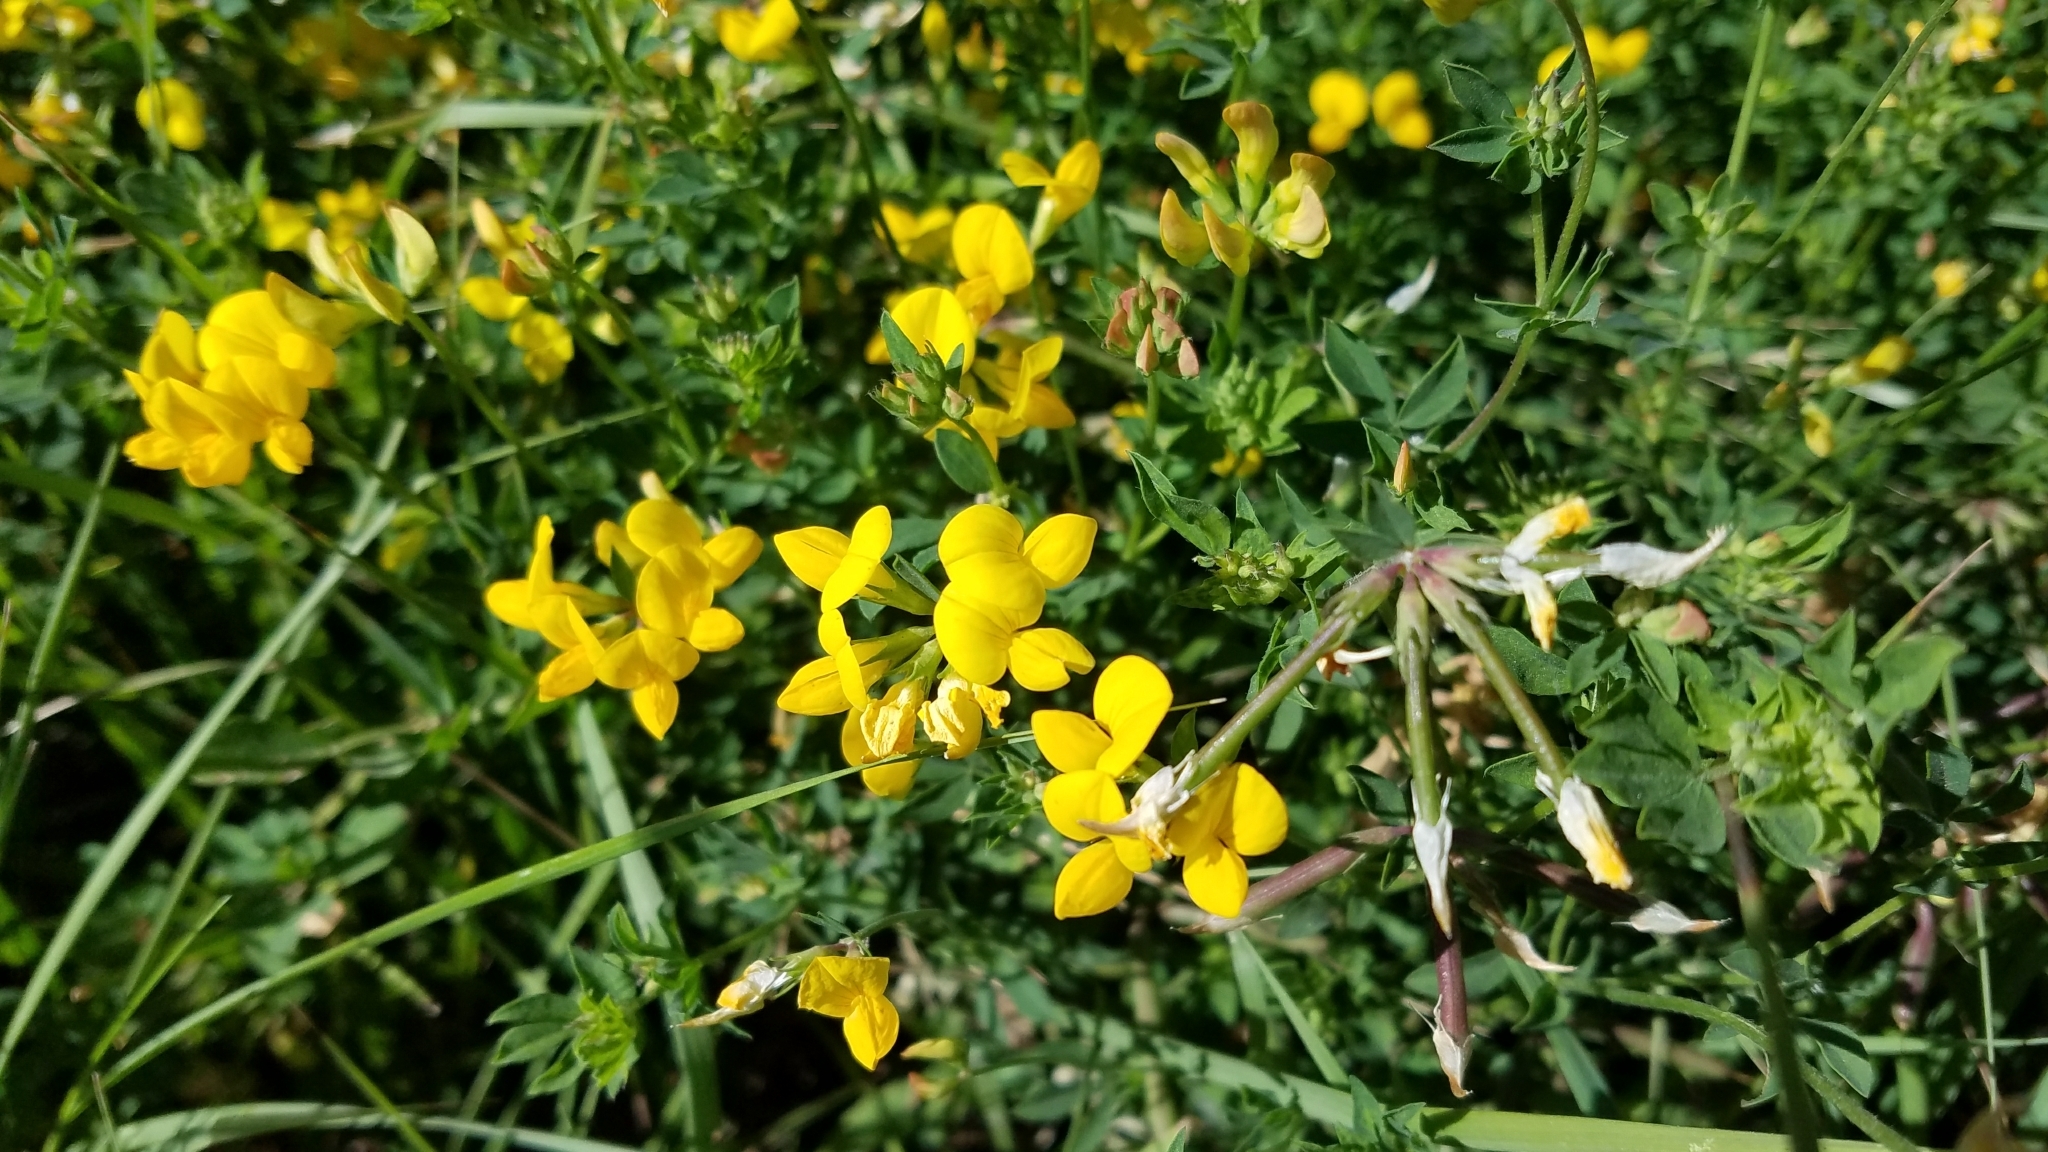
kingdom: Plantae
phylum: Tracheophyta
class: Magnoliopsida
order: Fabales
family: Fabaceae
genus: Lotus
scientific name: Lotus corniculatus
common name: Common bird's-foot-trefoil
